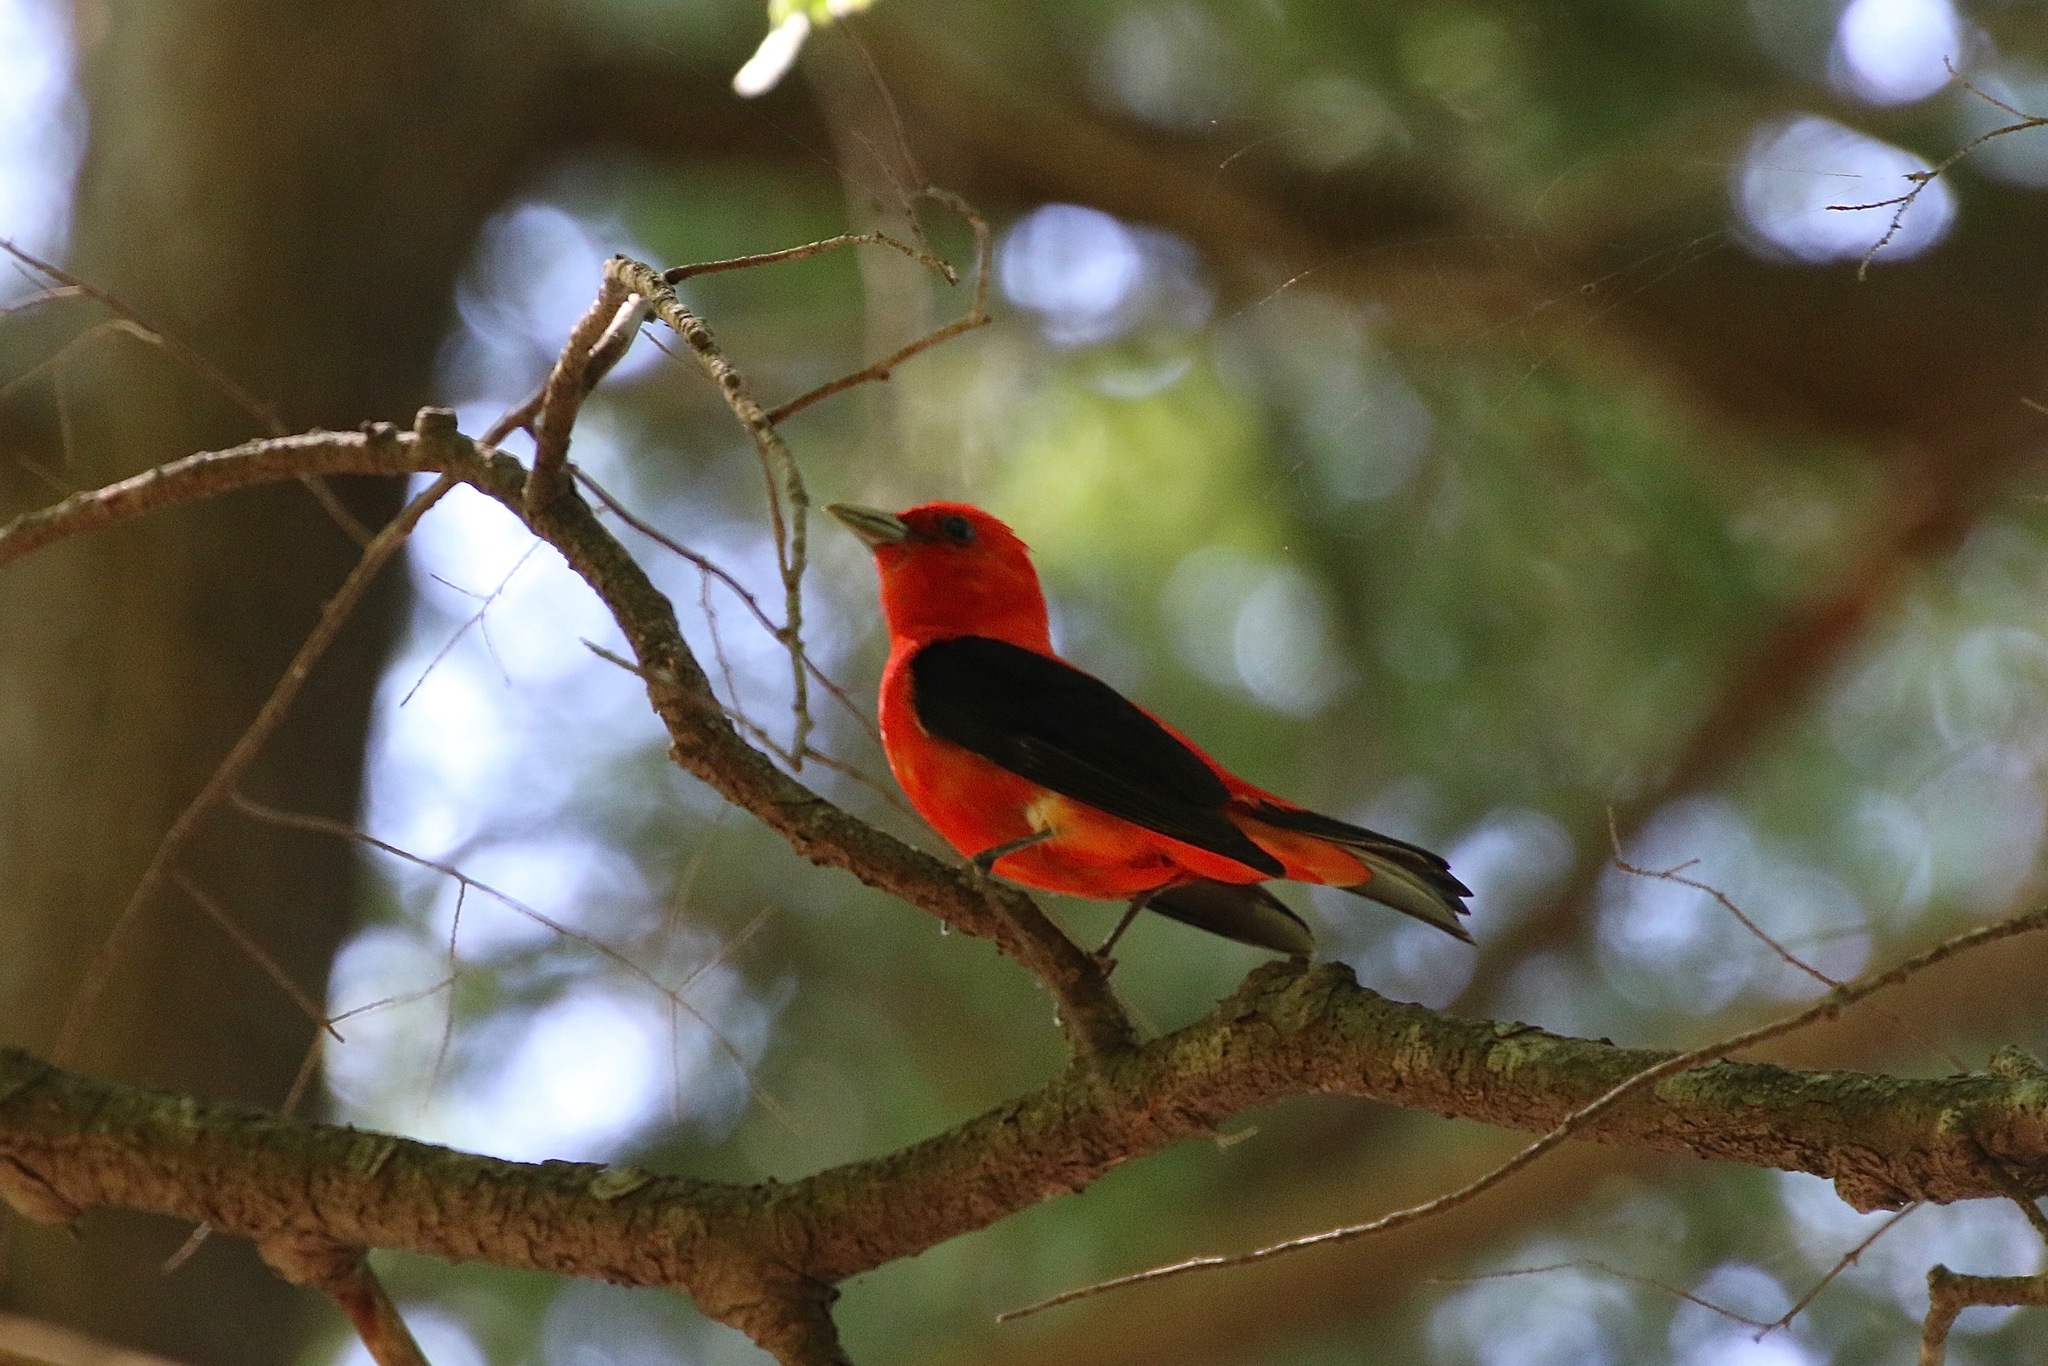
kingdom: Animalia
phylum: Chordata
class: Aves
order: Passeriformes
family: Cardinalidae
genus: Piranga
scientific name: Piranga olivacea
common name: Scarlet tanager
